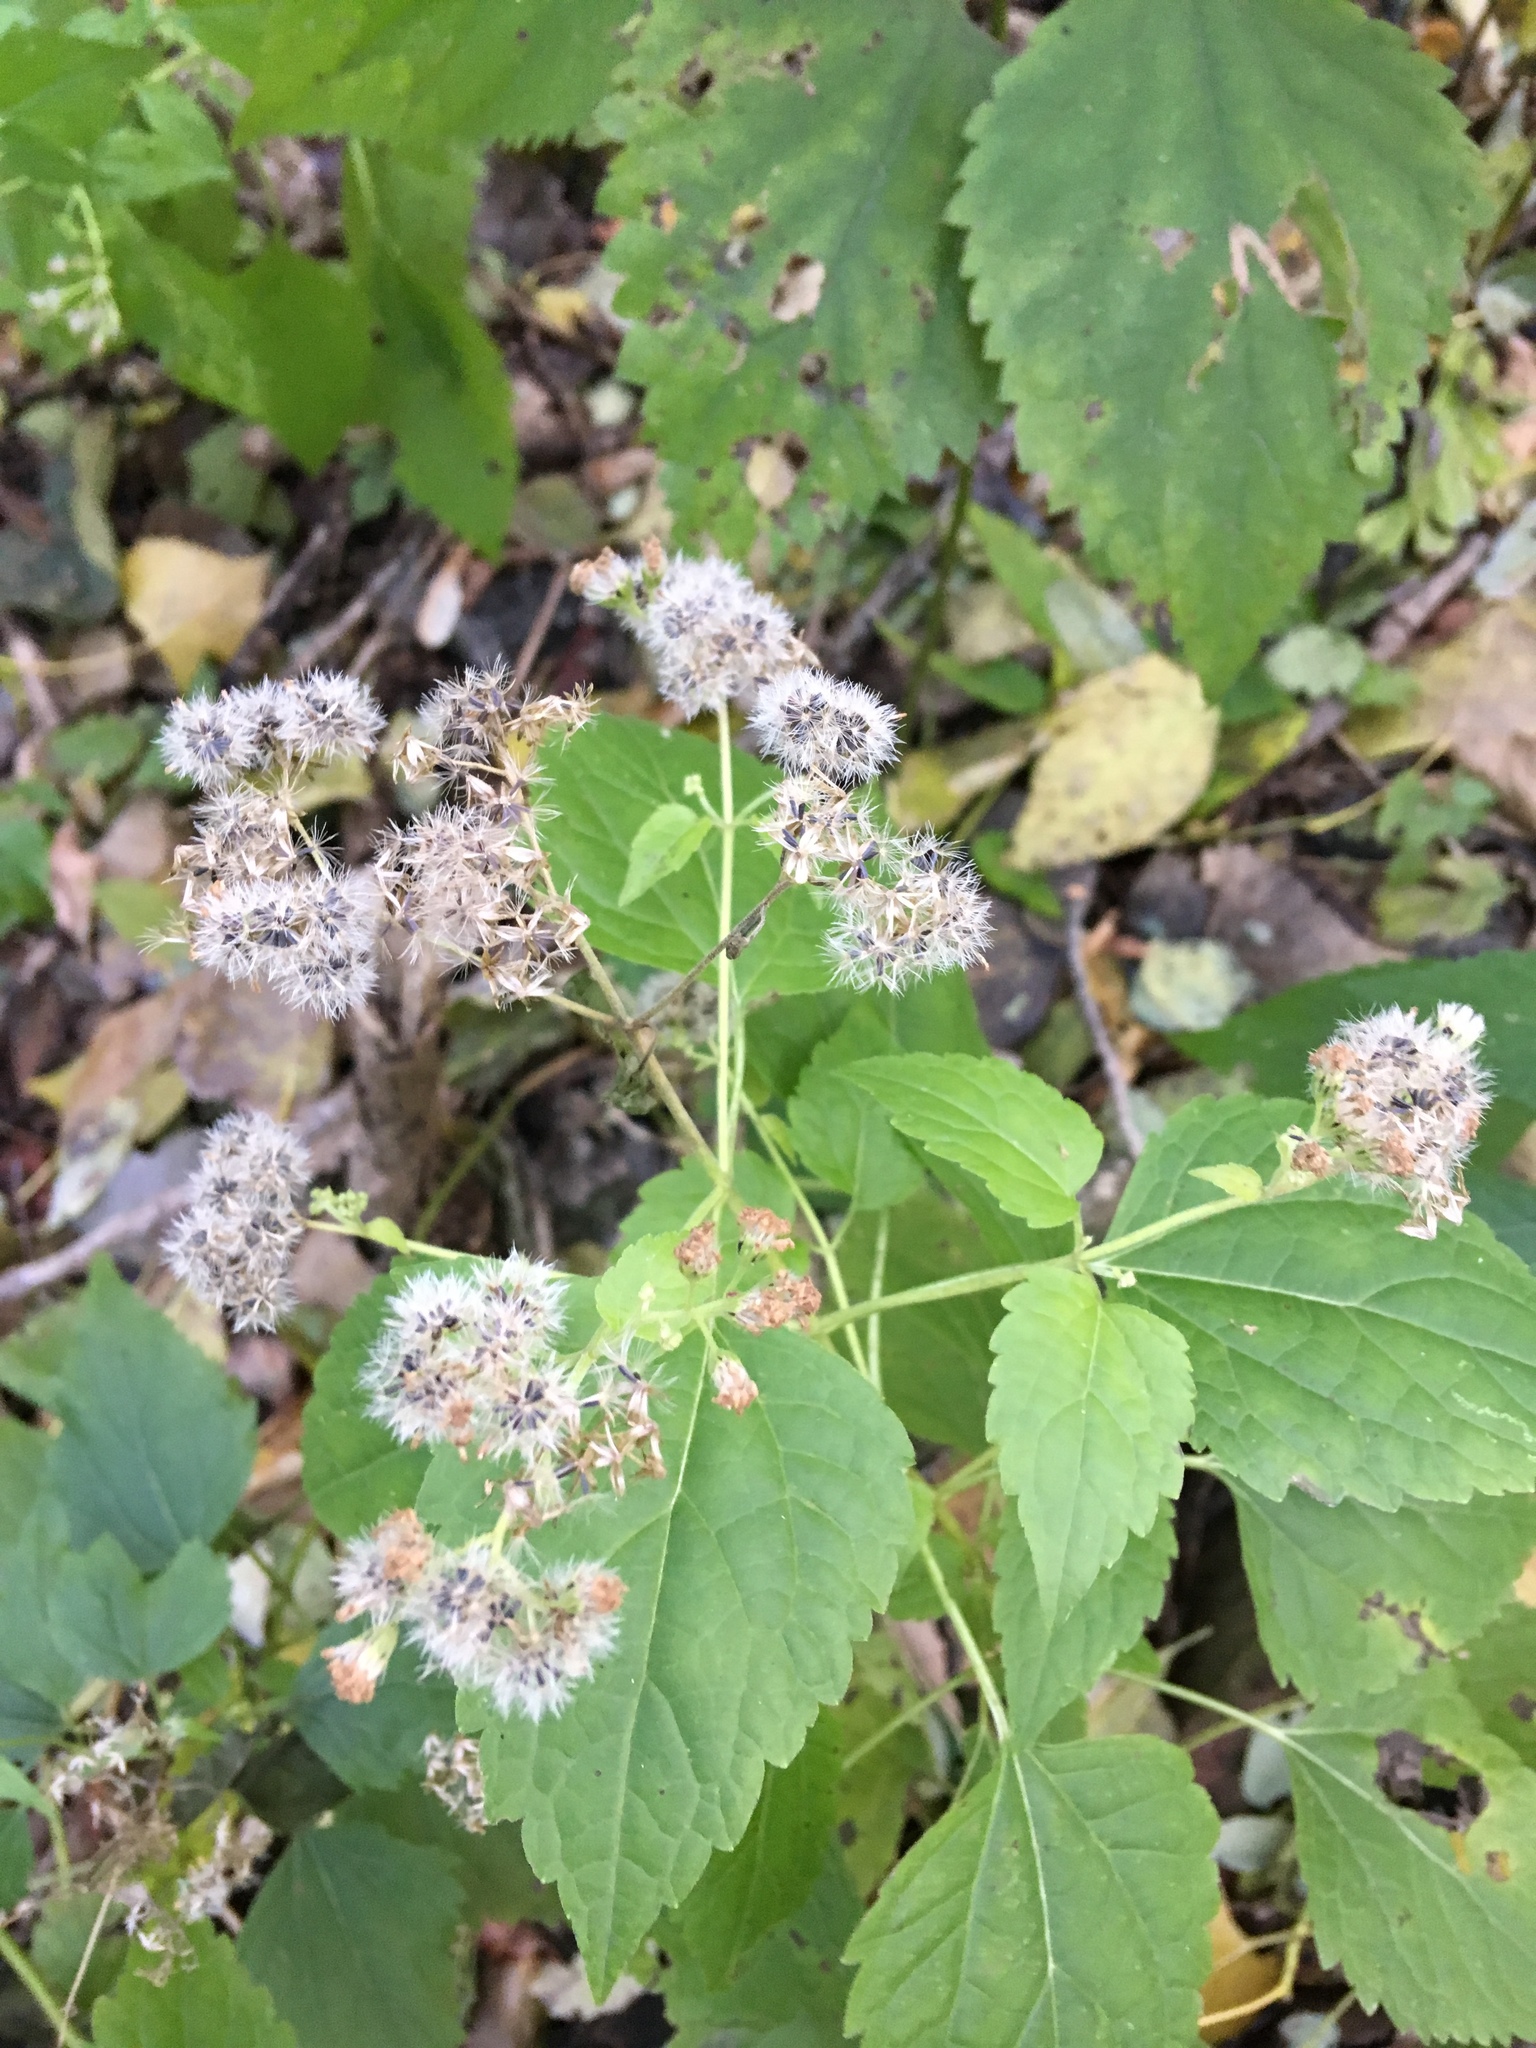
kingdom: Plantae
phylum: Tracheophyta
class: Magnoliopsida
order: Asterales
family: Asteraceae
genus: Ageratina
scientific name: Ageratina altissima
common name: White snakeroot
